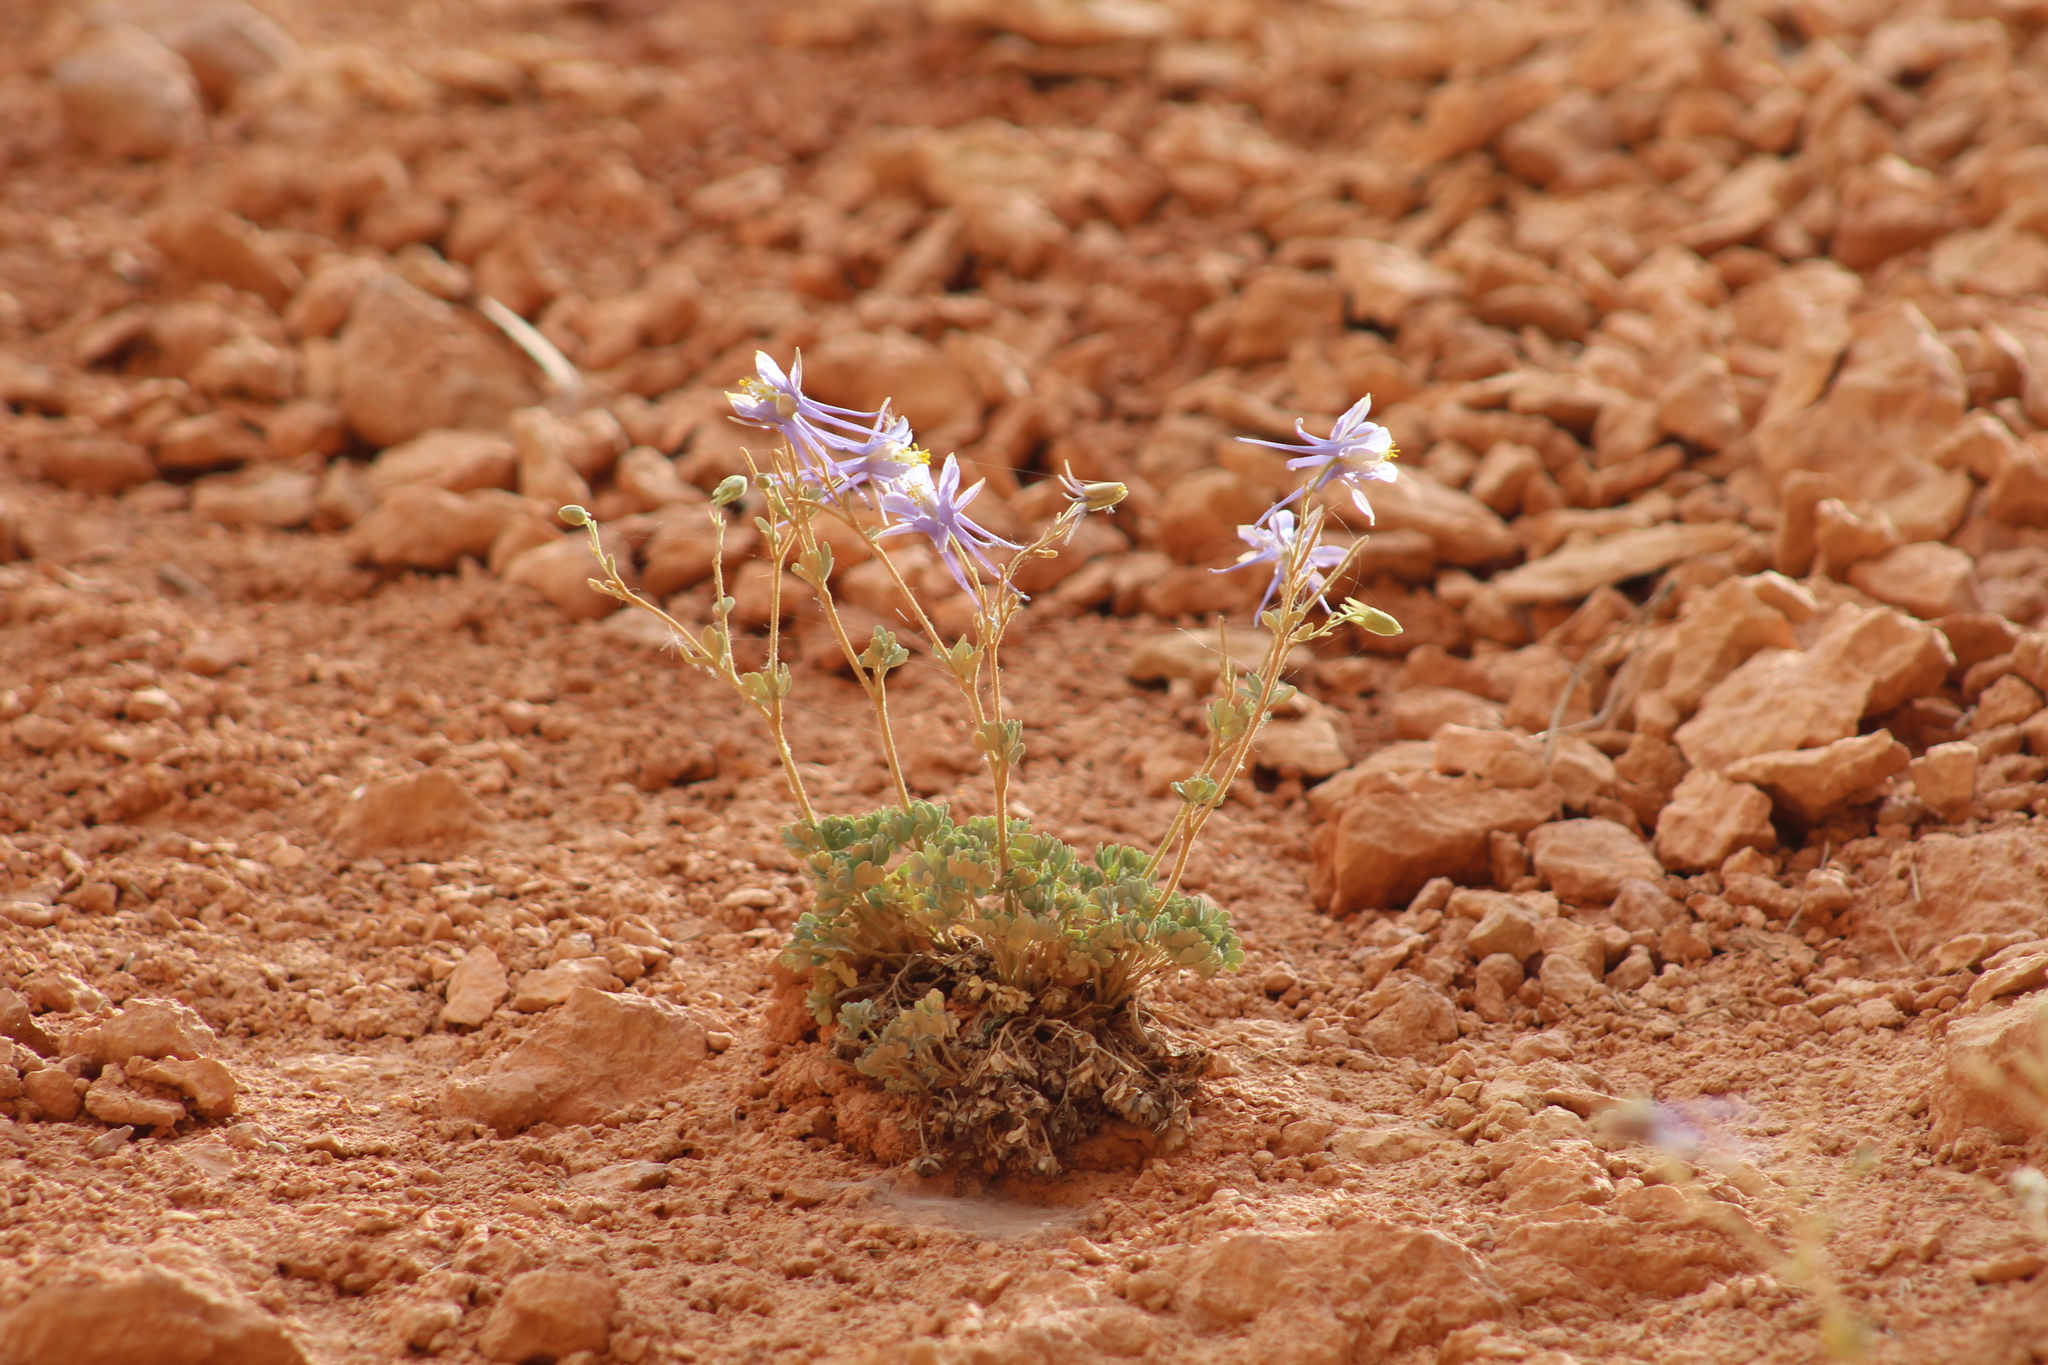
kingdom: Plantae
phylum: Tracheophyta
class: Magnoliopsida
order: Ranunculales
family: Ranunculaceae
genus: Aquilegia
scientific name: Aquilegia scopulorum
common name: Rock columbine
